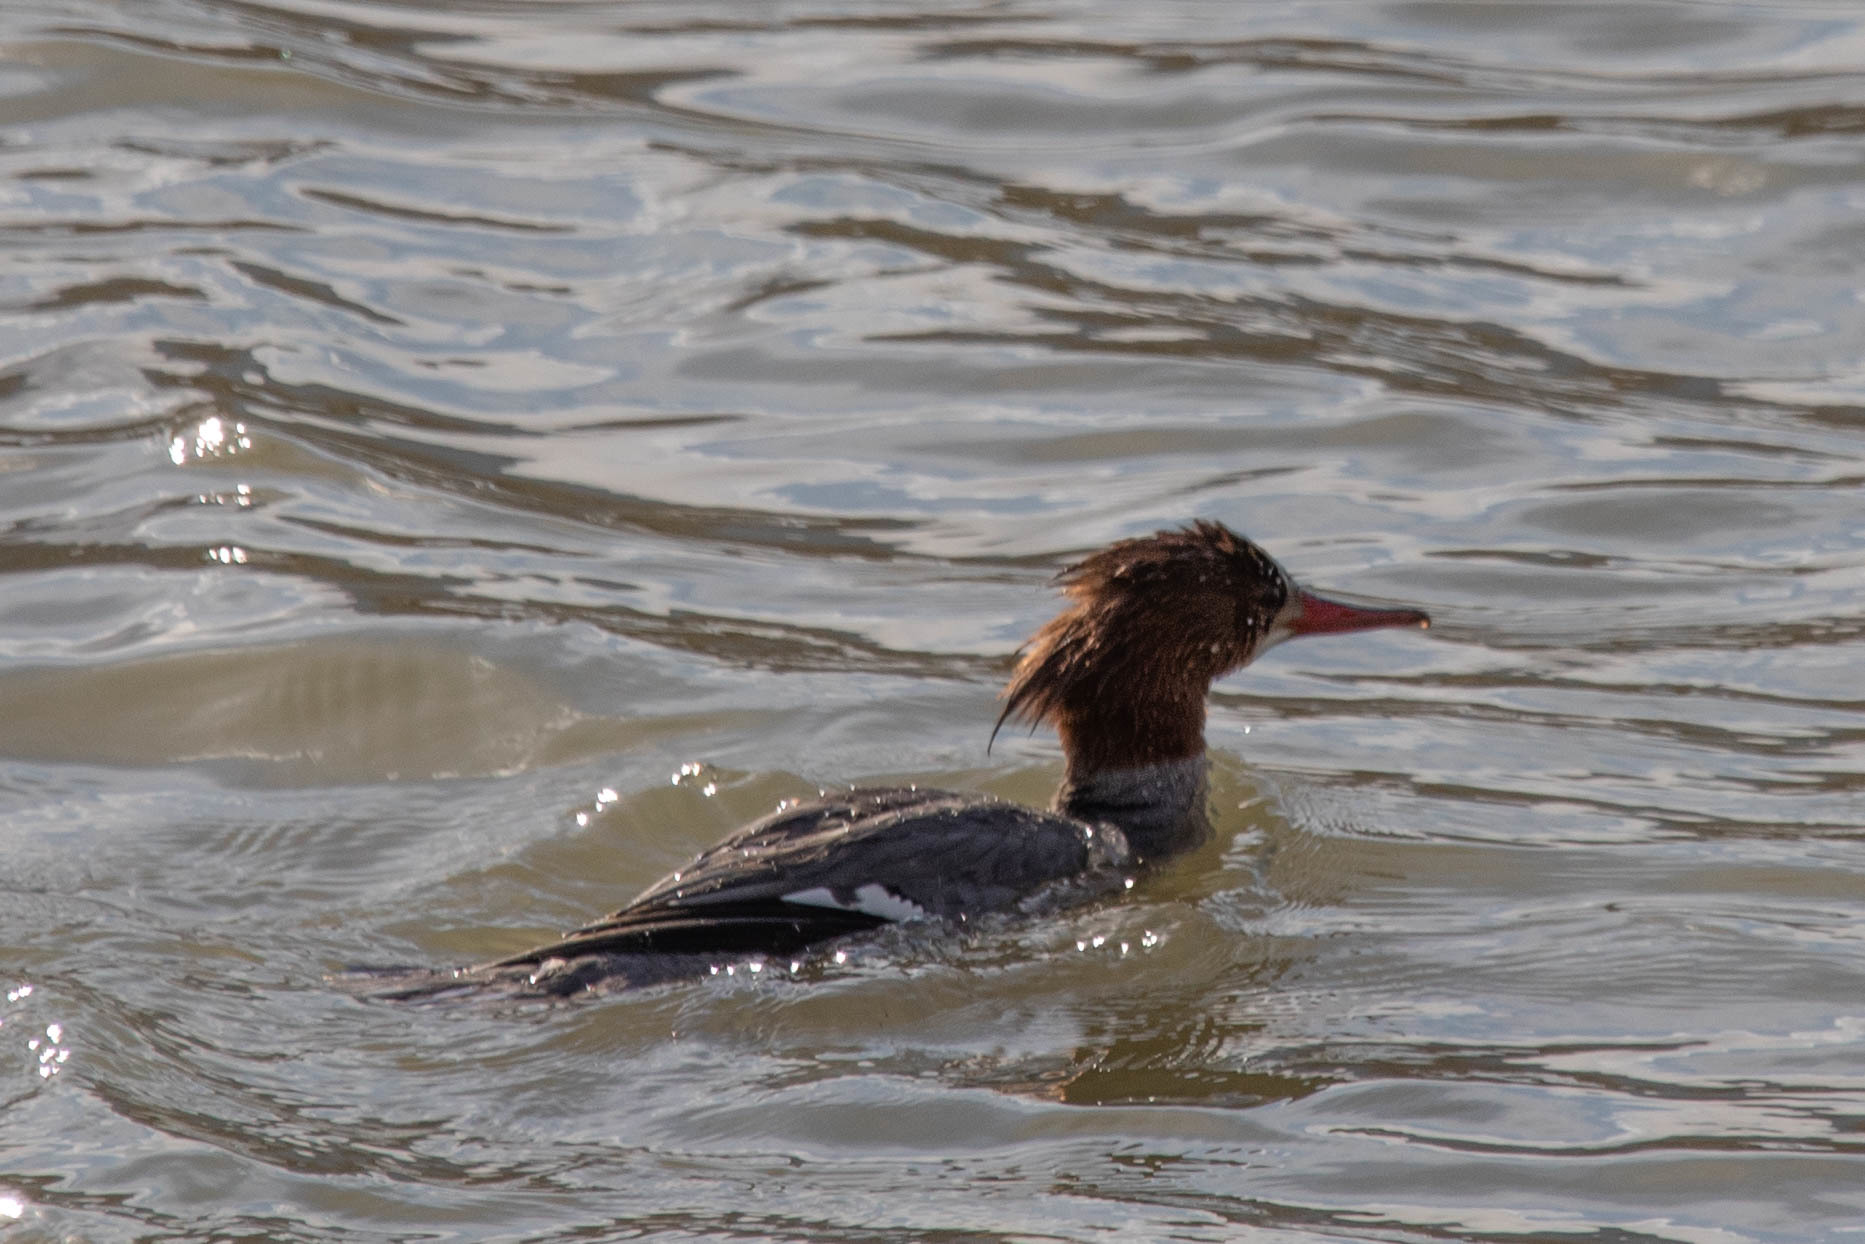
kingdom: Animalia
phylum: Chordata
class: Aves
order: Anseriformes
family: Anatidae
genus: Mergus
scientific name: Mergus merganser
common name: Common merganser
